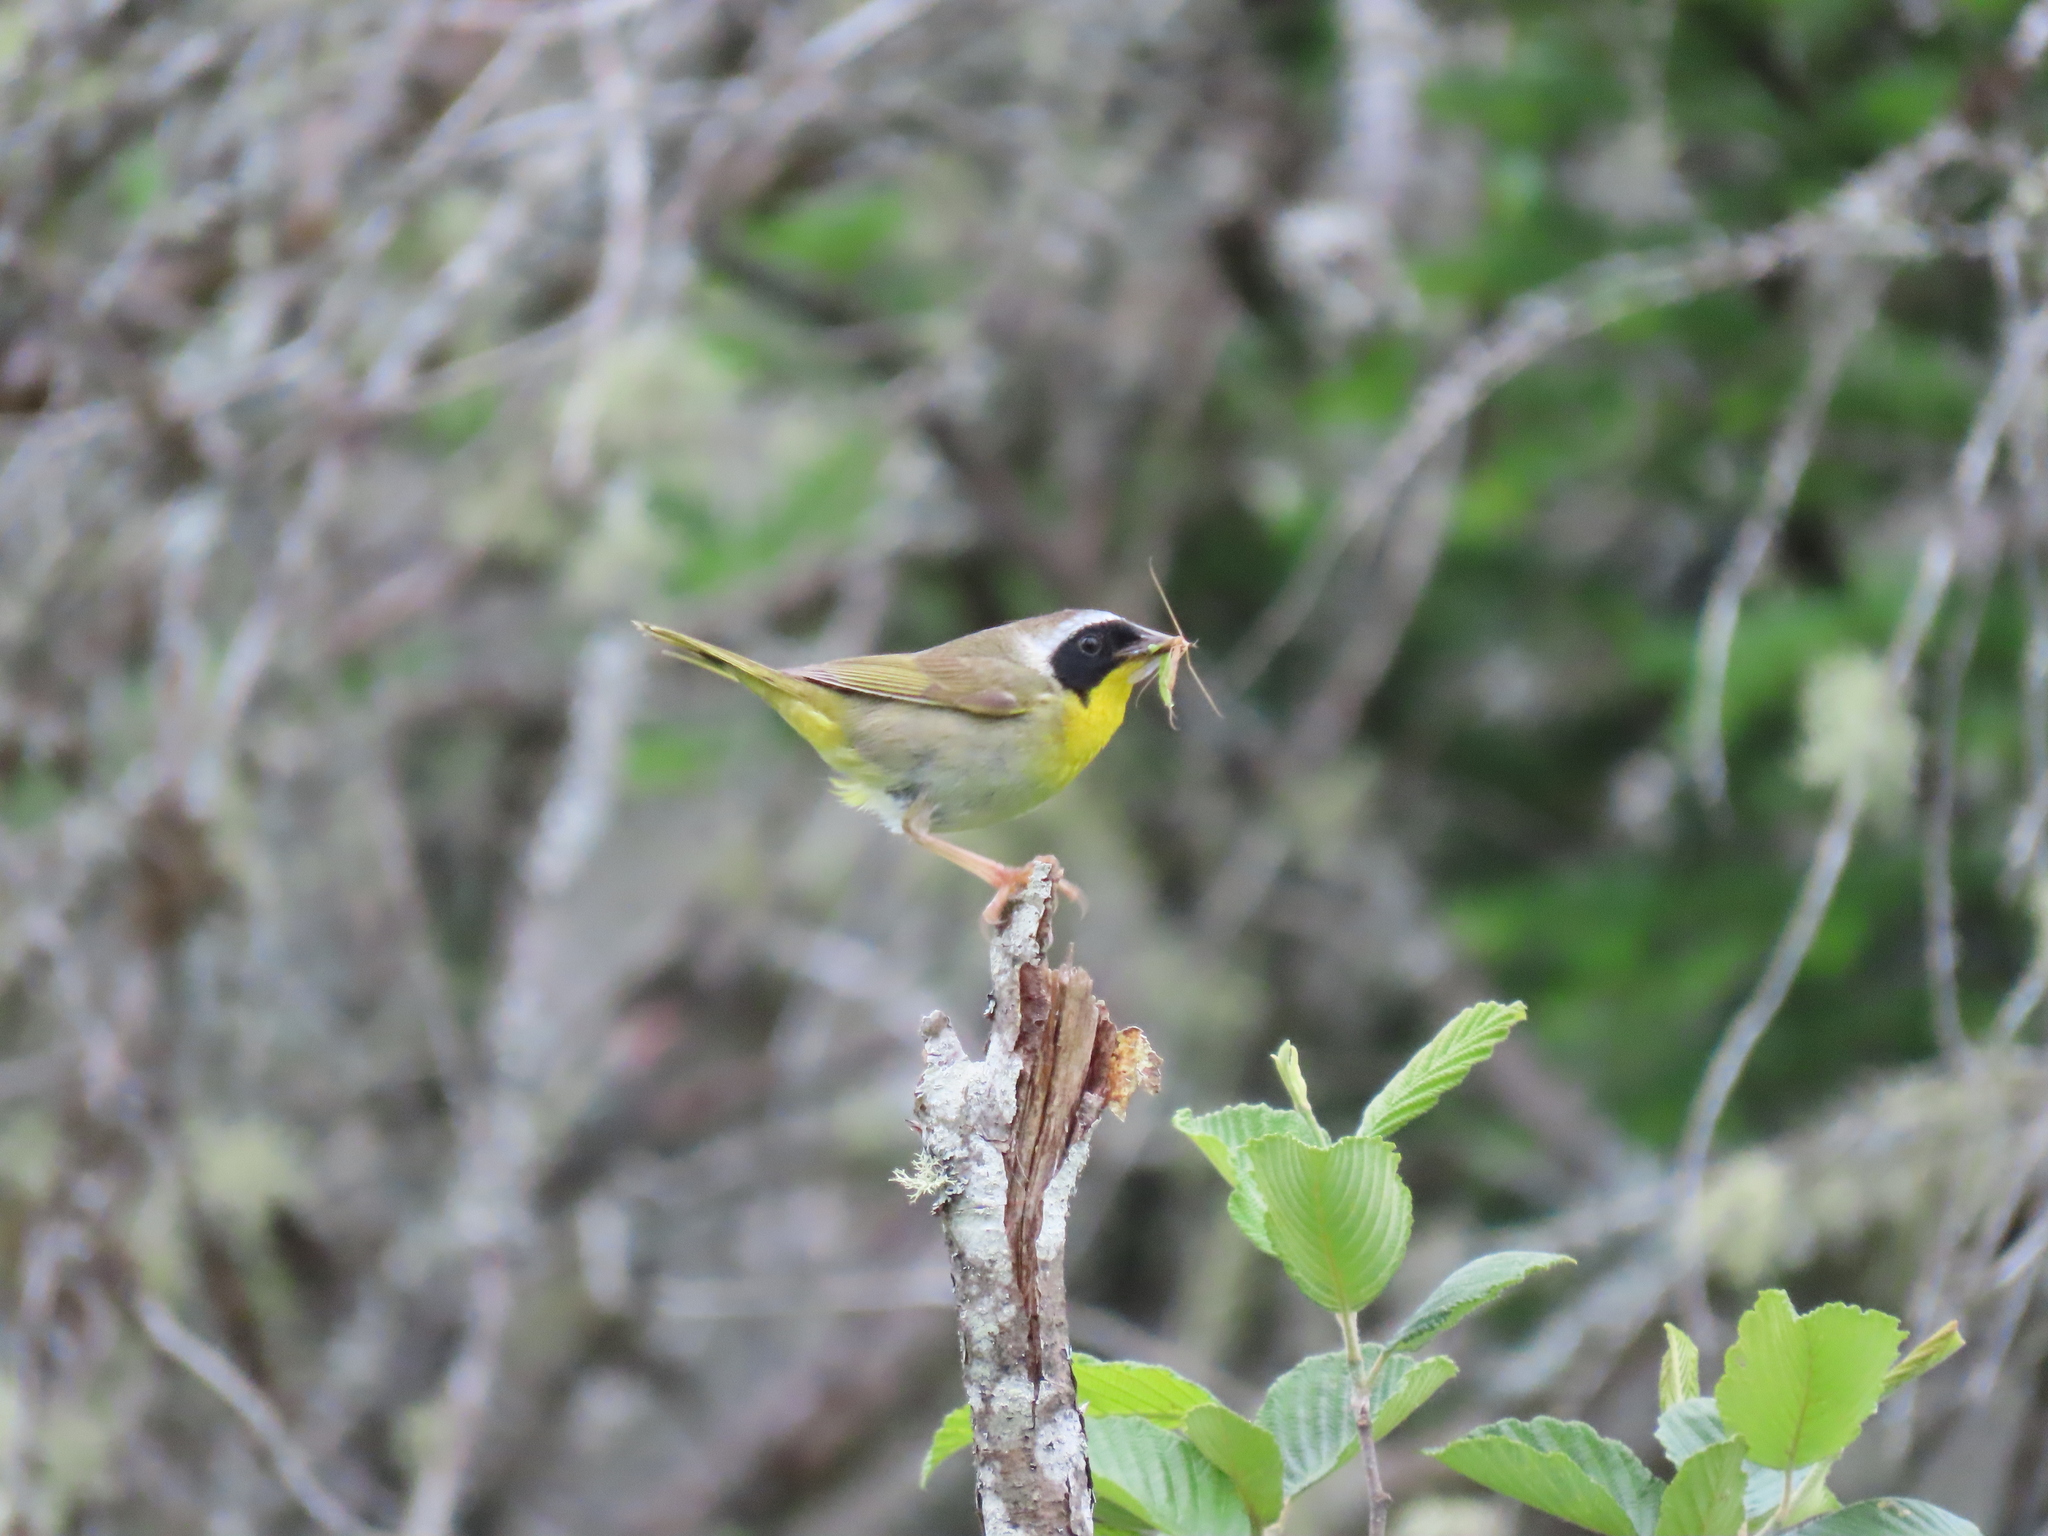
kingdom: Animalia
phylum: Chordata
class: Aves
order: Passeriformes
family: Parulidae
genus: Geothlypis
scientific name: Geothlypis trichas
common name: Common yellowthroat
